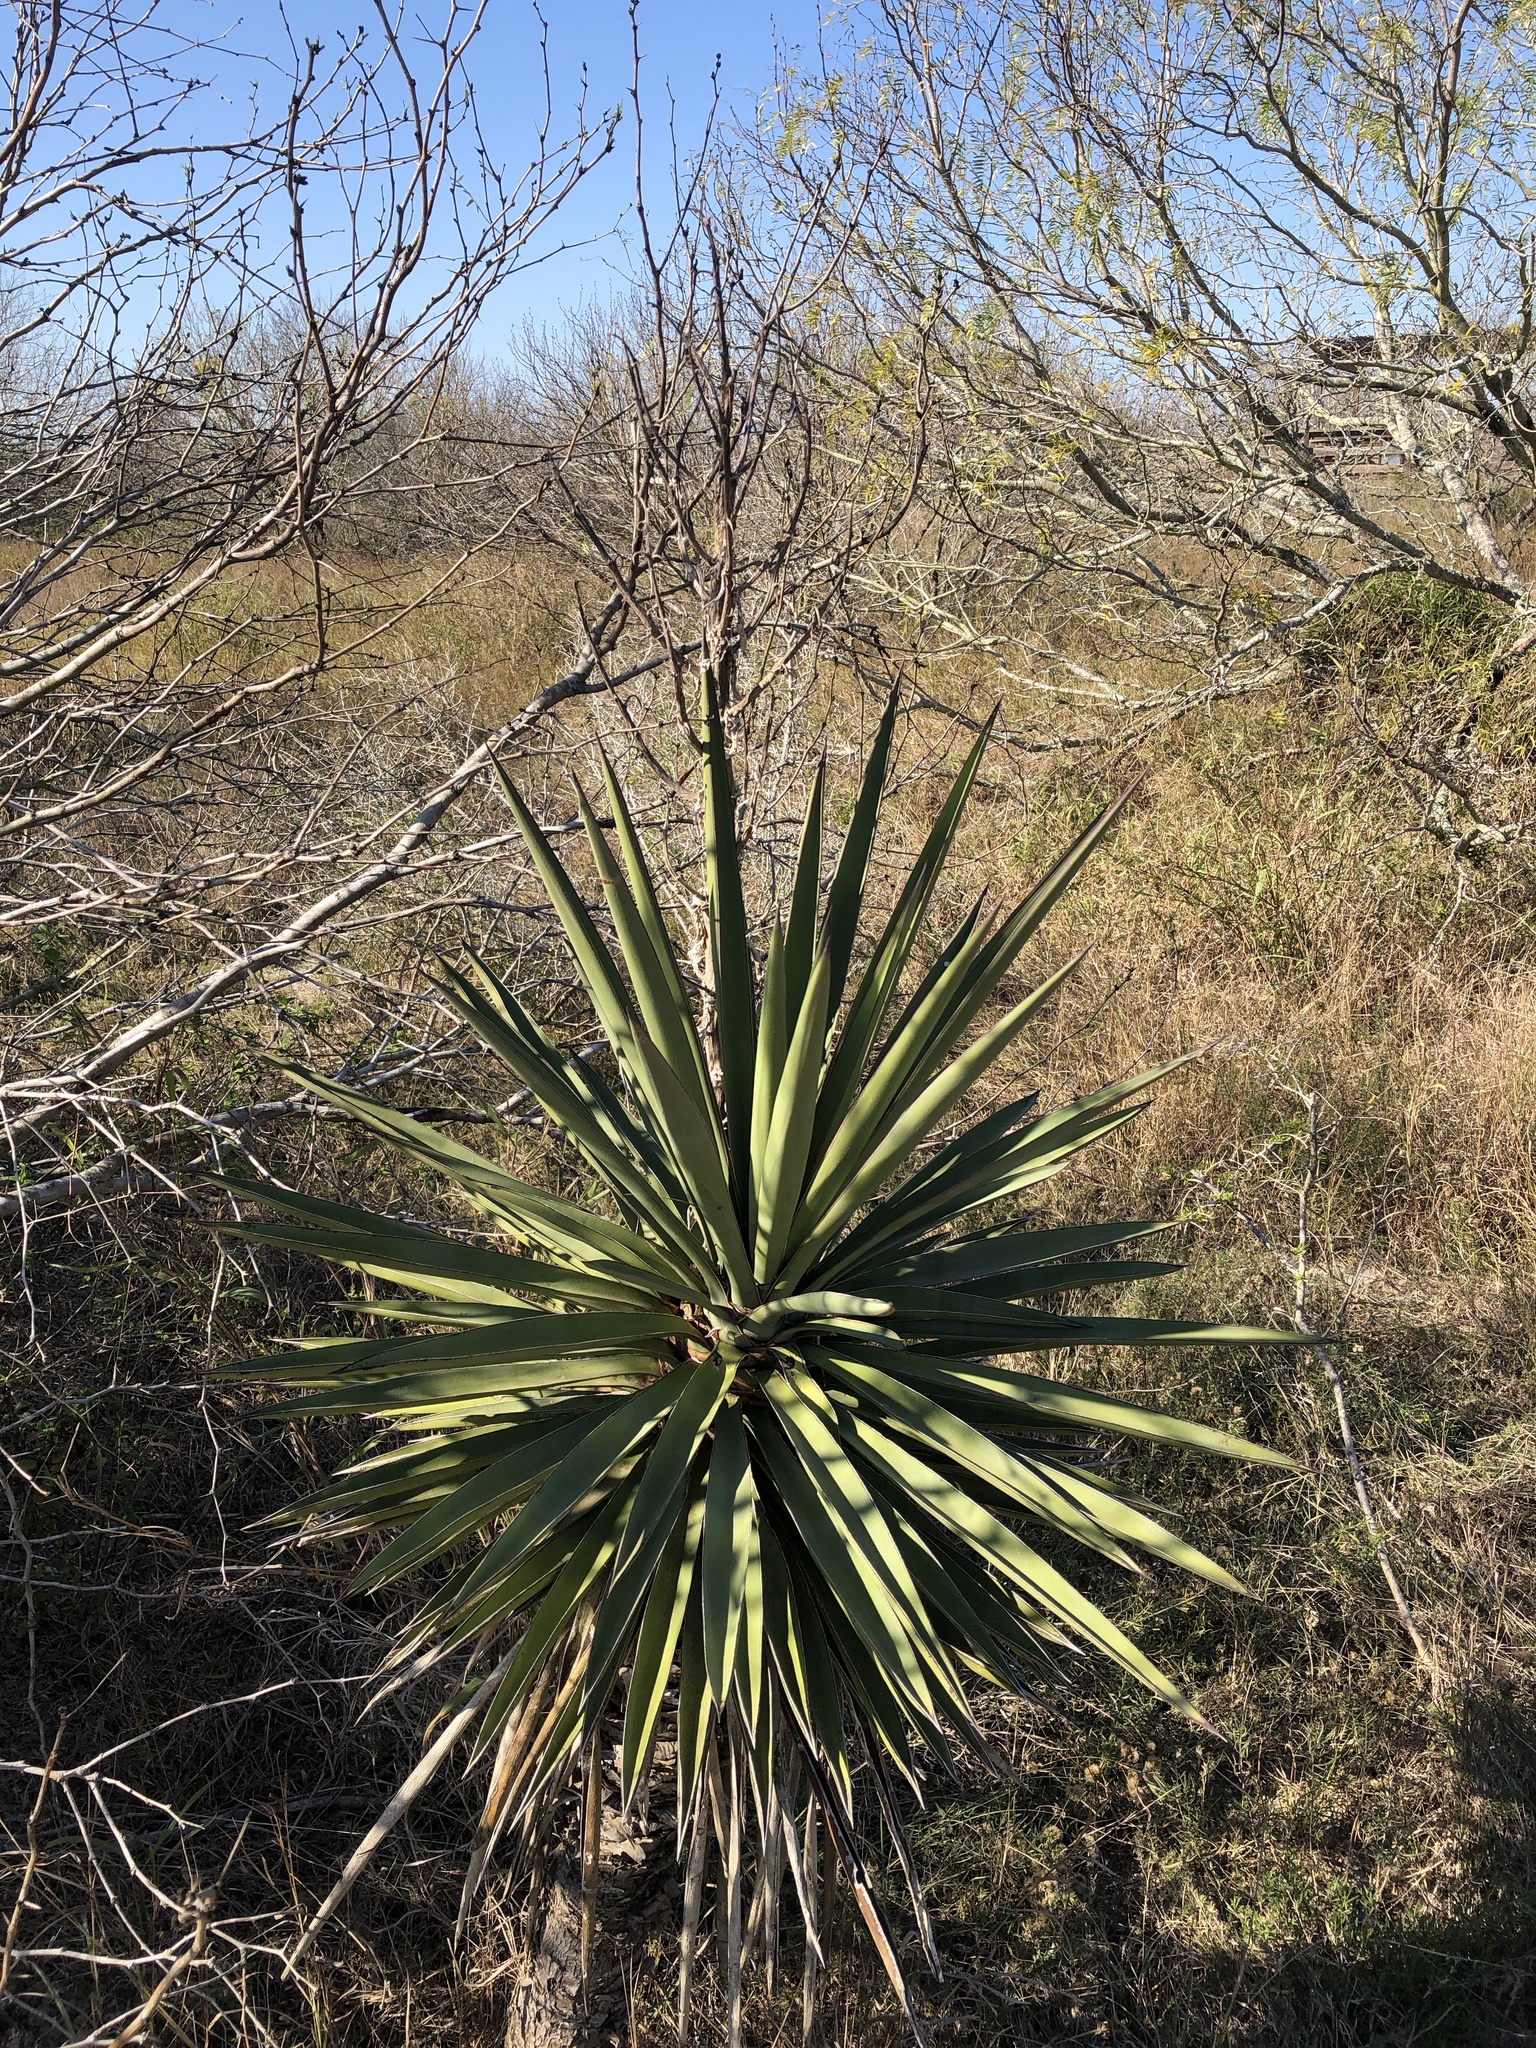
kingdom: Plantae
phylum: Tracheophyta
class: Liliopsida
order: Asparagales
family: Asparagaceae
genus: Yucca
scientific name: Yucca treculiana
